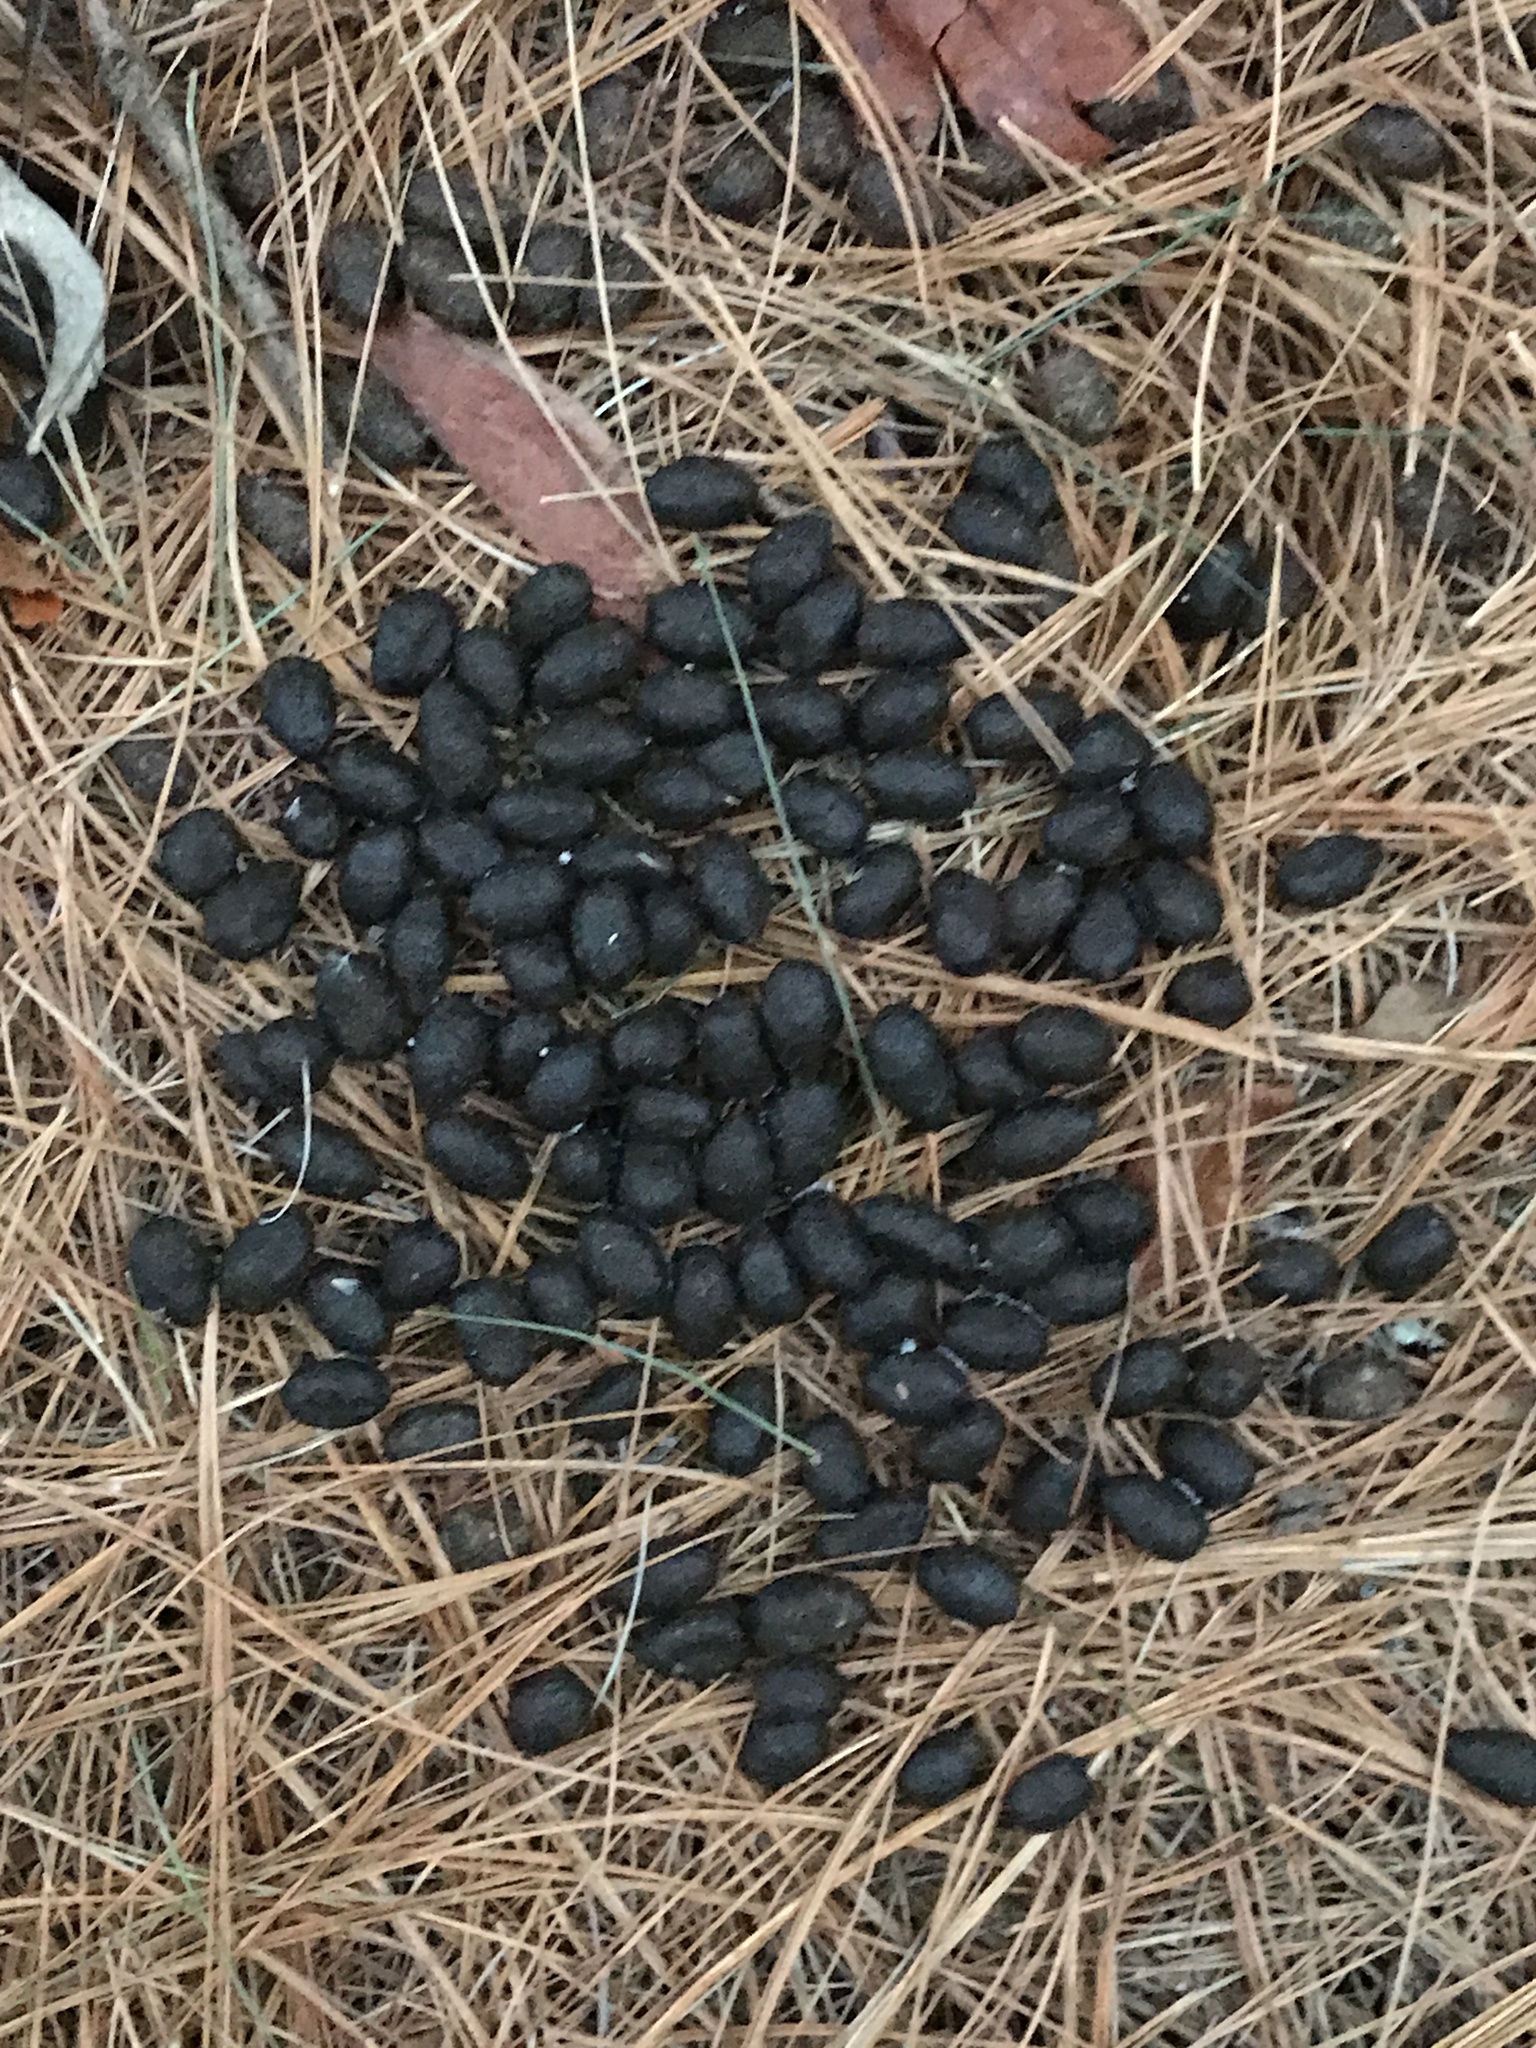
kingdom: Animalia
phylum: Chordata
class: Mammalia
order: Artiodactyla
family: Cervidae
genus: Odocoileus
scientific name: Odocoileus virginianus
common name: White-tailed deer
